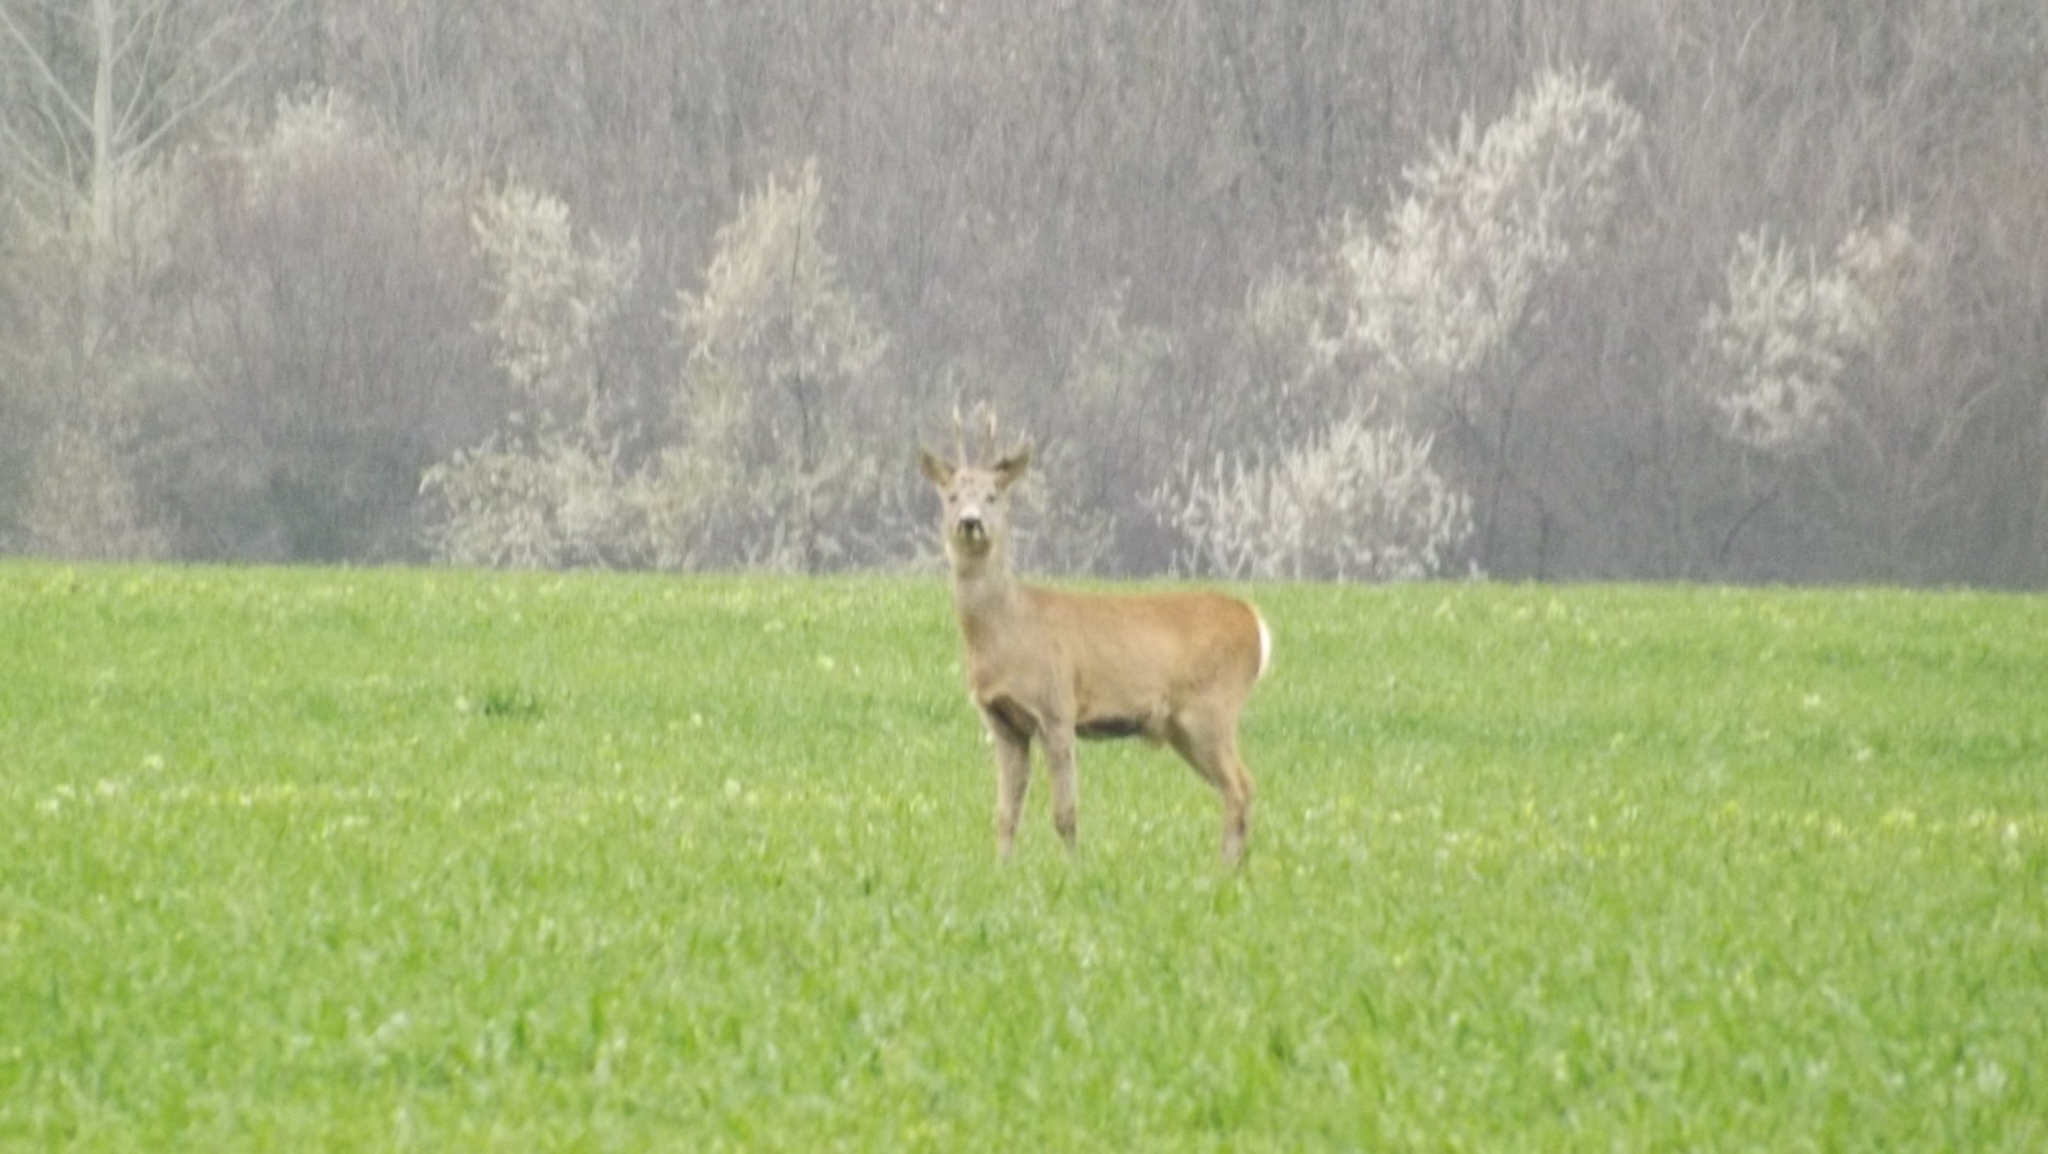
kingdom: Animalia
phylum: Chordata
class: Mammalia
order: Artiodactyla
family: Cervidae
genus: Capreolus
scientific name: Capreolus capreolus
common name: Western roe deer
